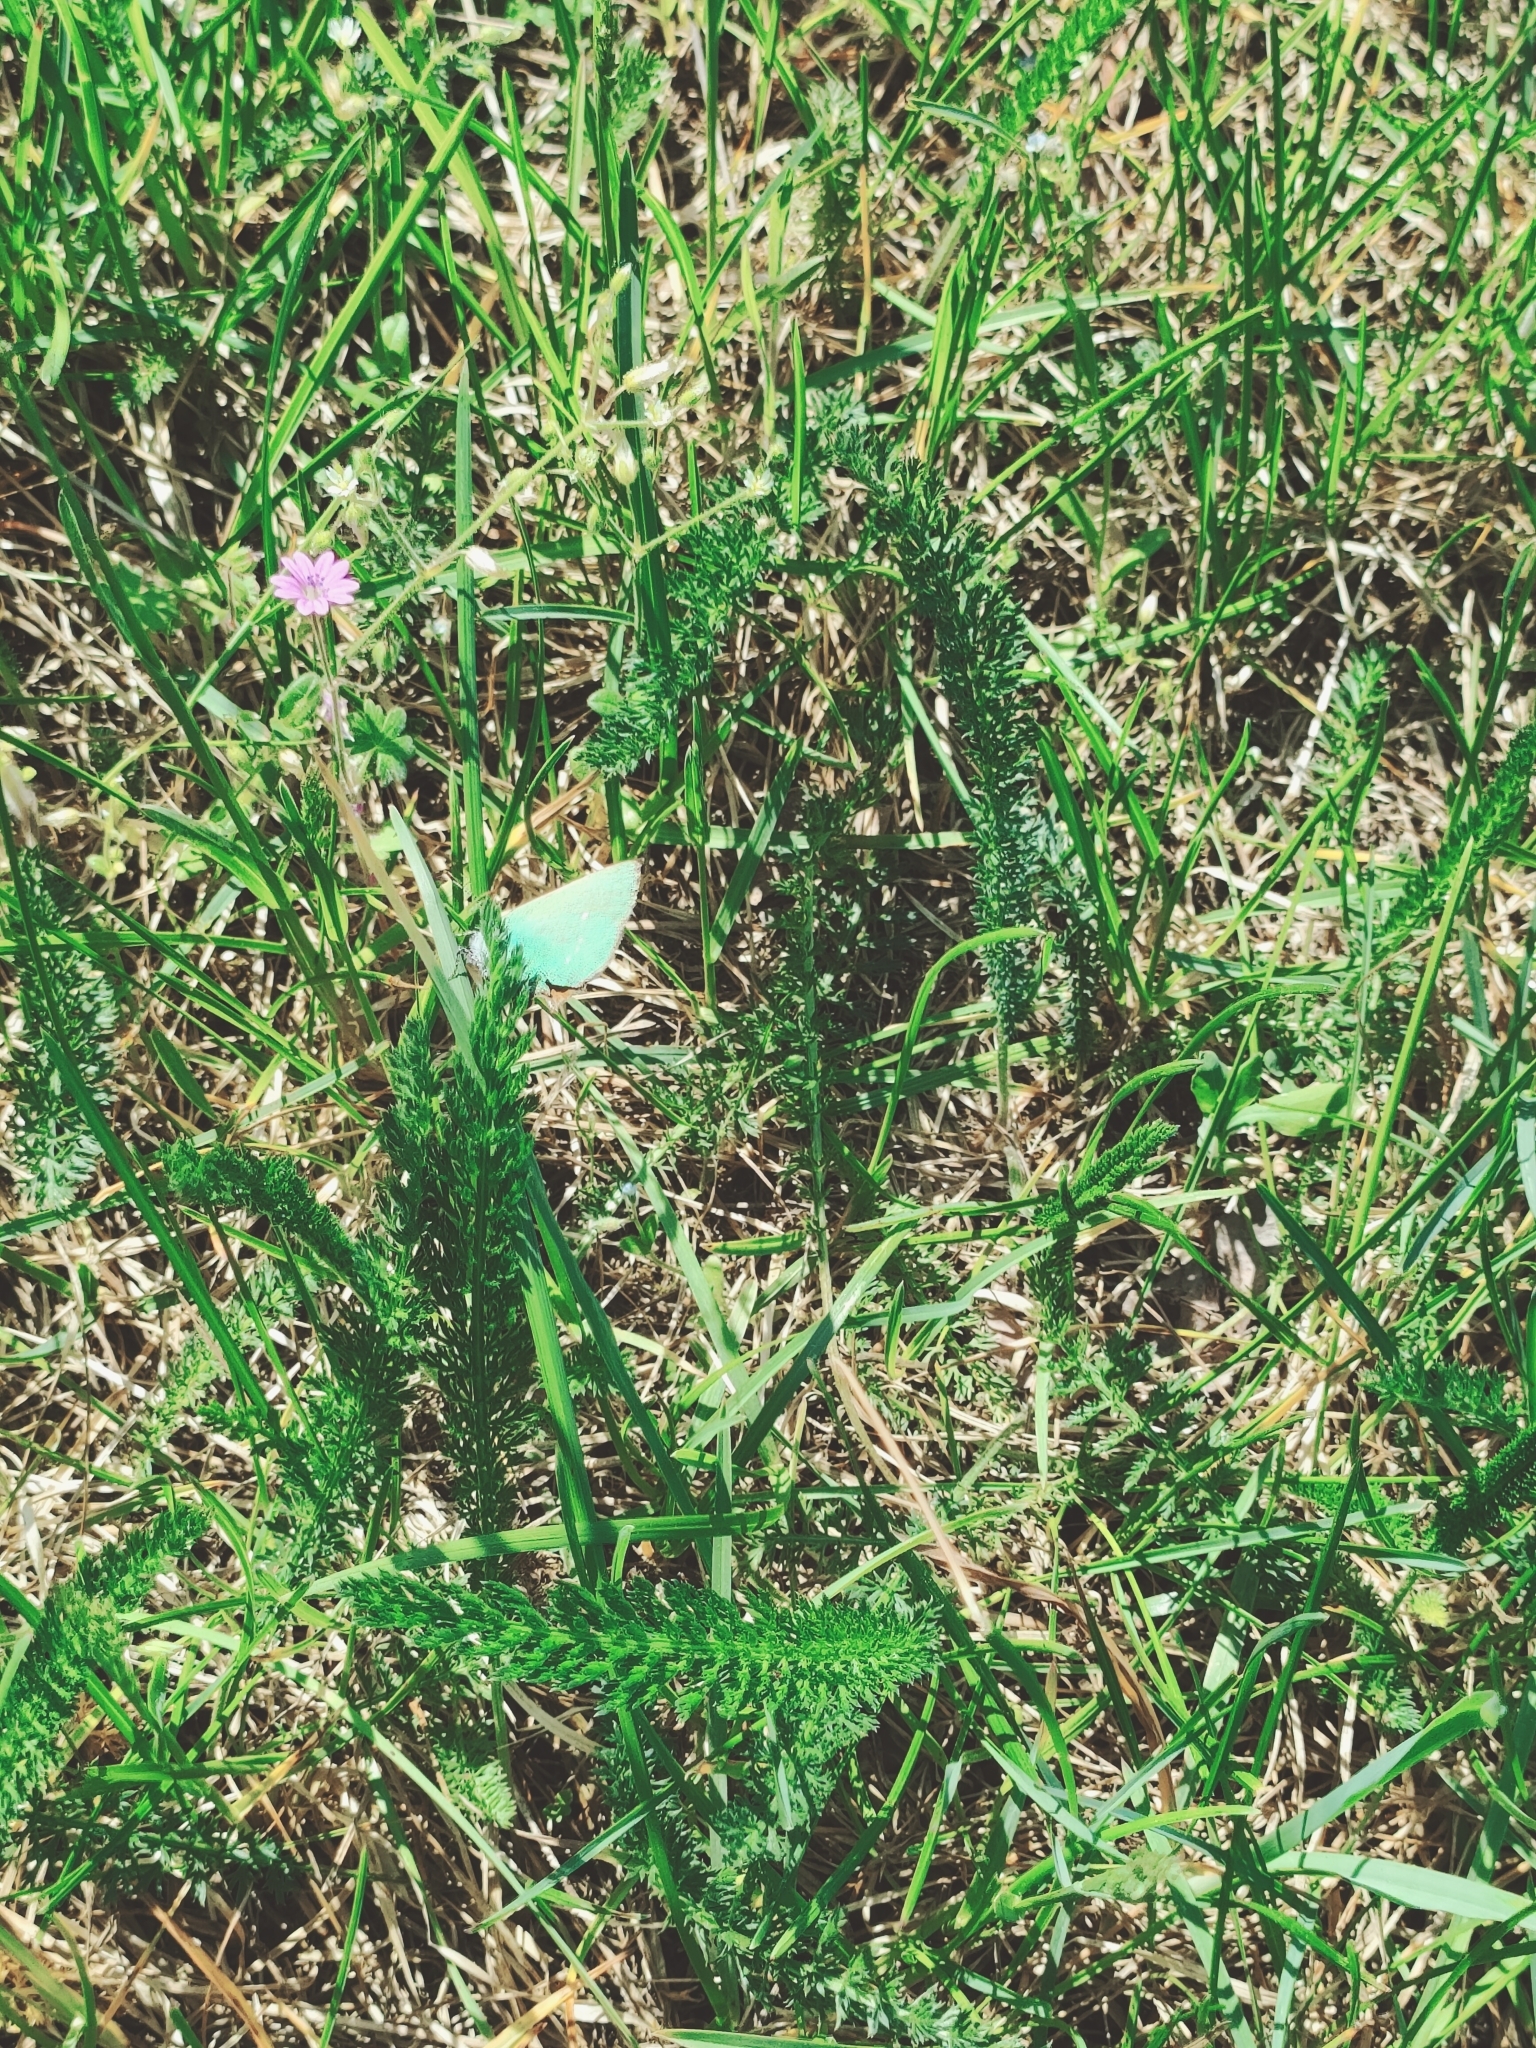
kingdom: Animalia
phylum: Arthropoda
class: Insecta
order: Lepidoptera
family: Lycaenidae
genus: Callophrys
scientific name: Callophrys rubi
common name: Green hairstreak
